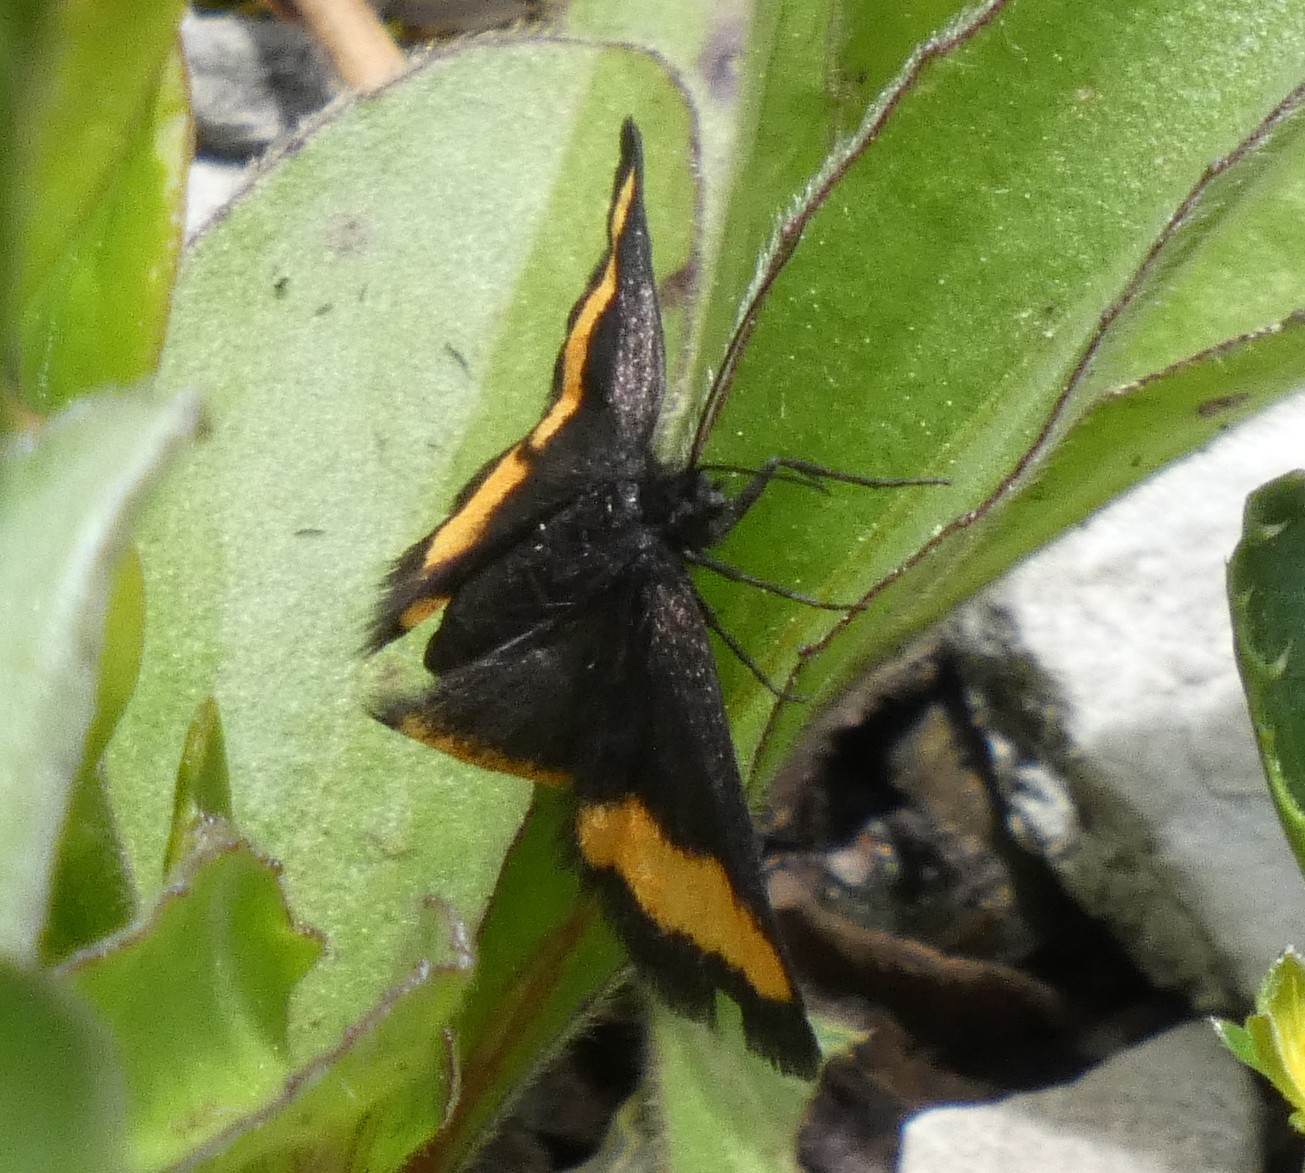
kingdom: Animalia
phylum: Arthropoda
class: Insecta
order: Lepidoptera
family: Geometridae
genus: Psodos
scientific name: Psodos quadrifaria
